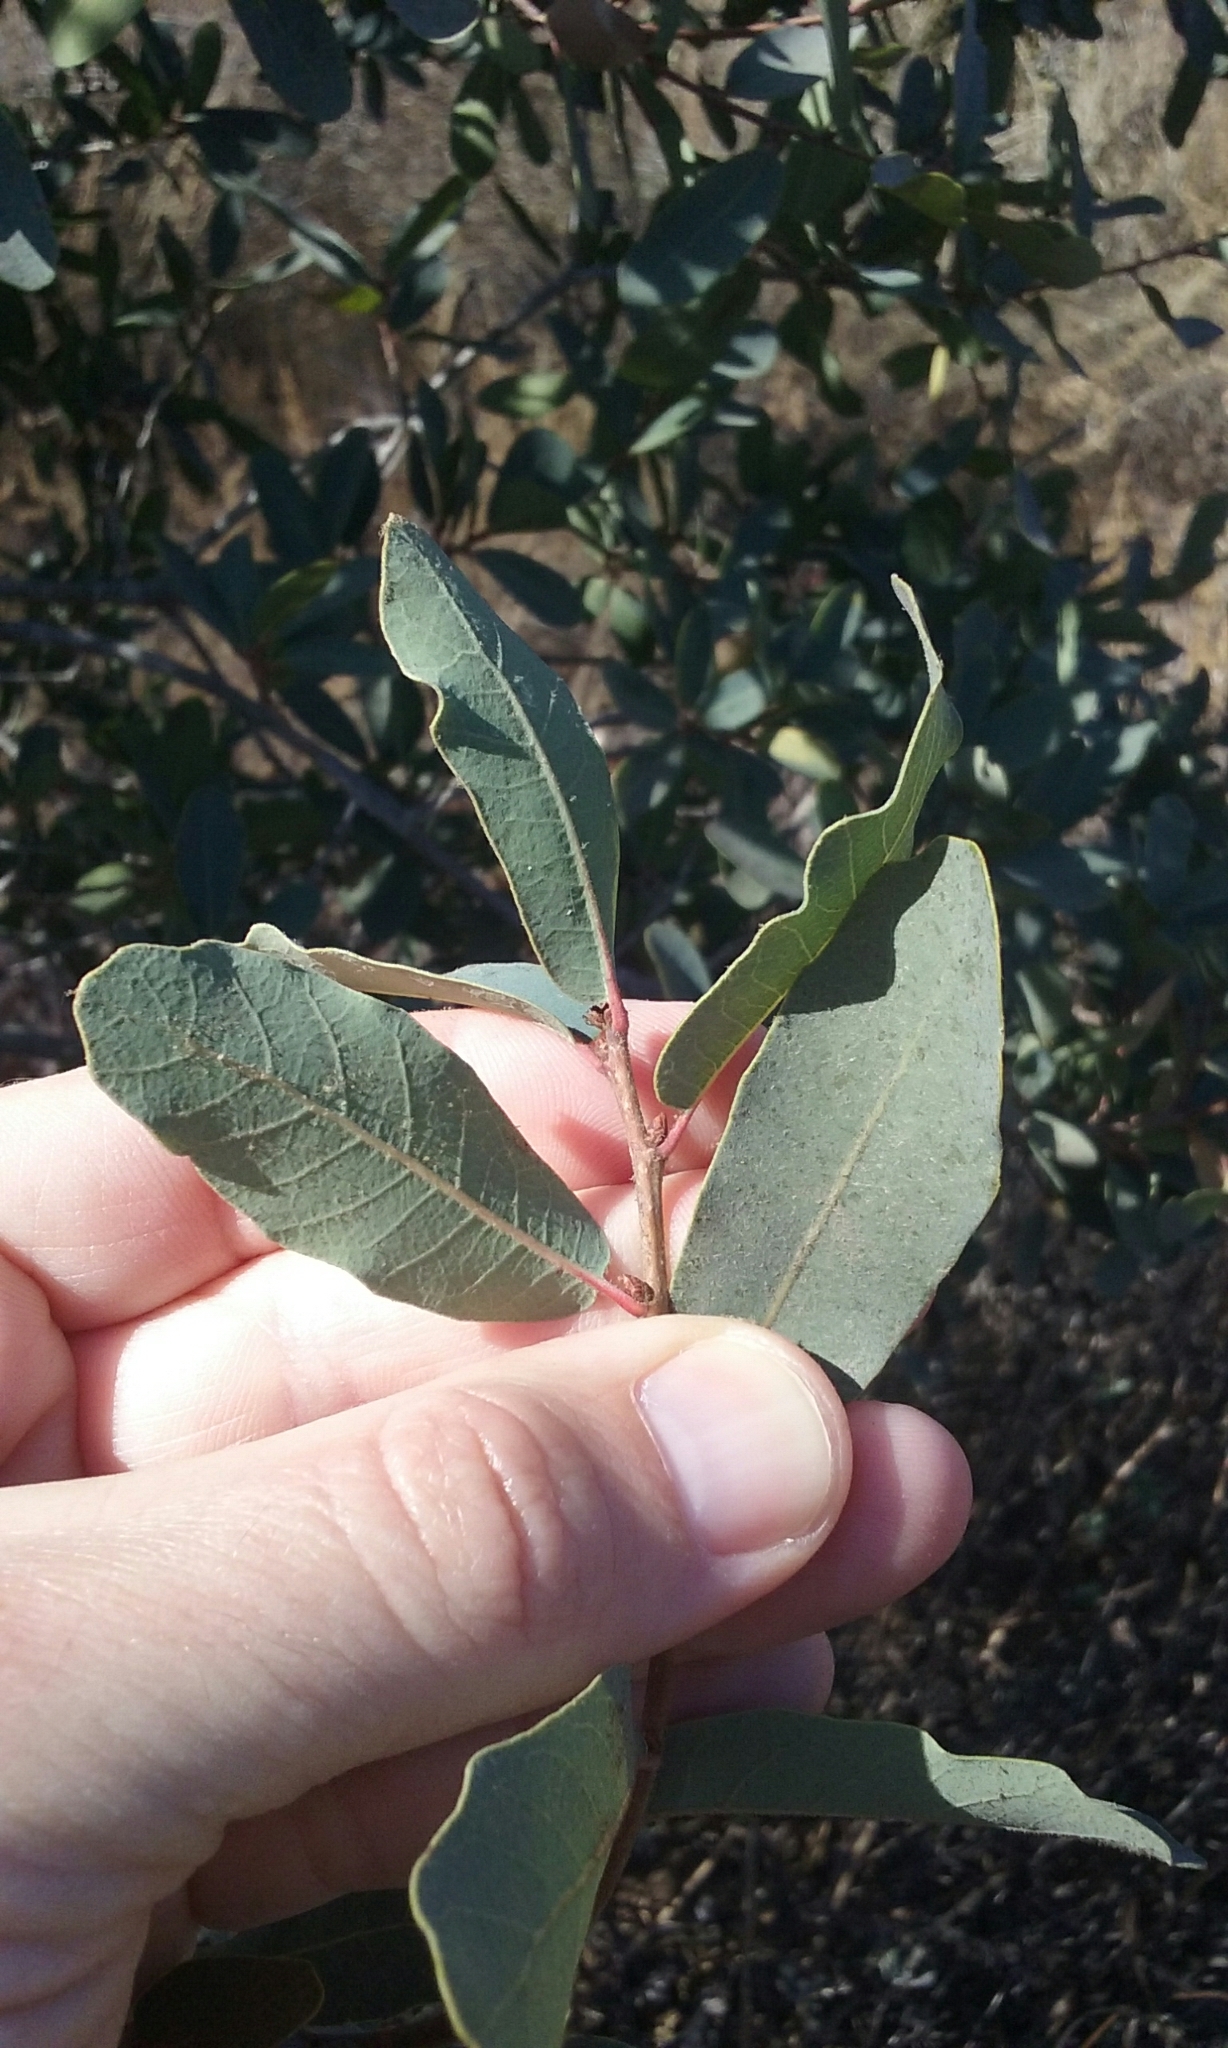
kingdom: Plantae
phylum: Tracheophyta
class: Magnoliopsida
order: Fagales
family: Fagaceae
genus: Quercus
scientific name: Quercus engelmannii
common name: Engelmann oak
